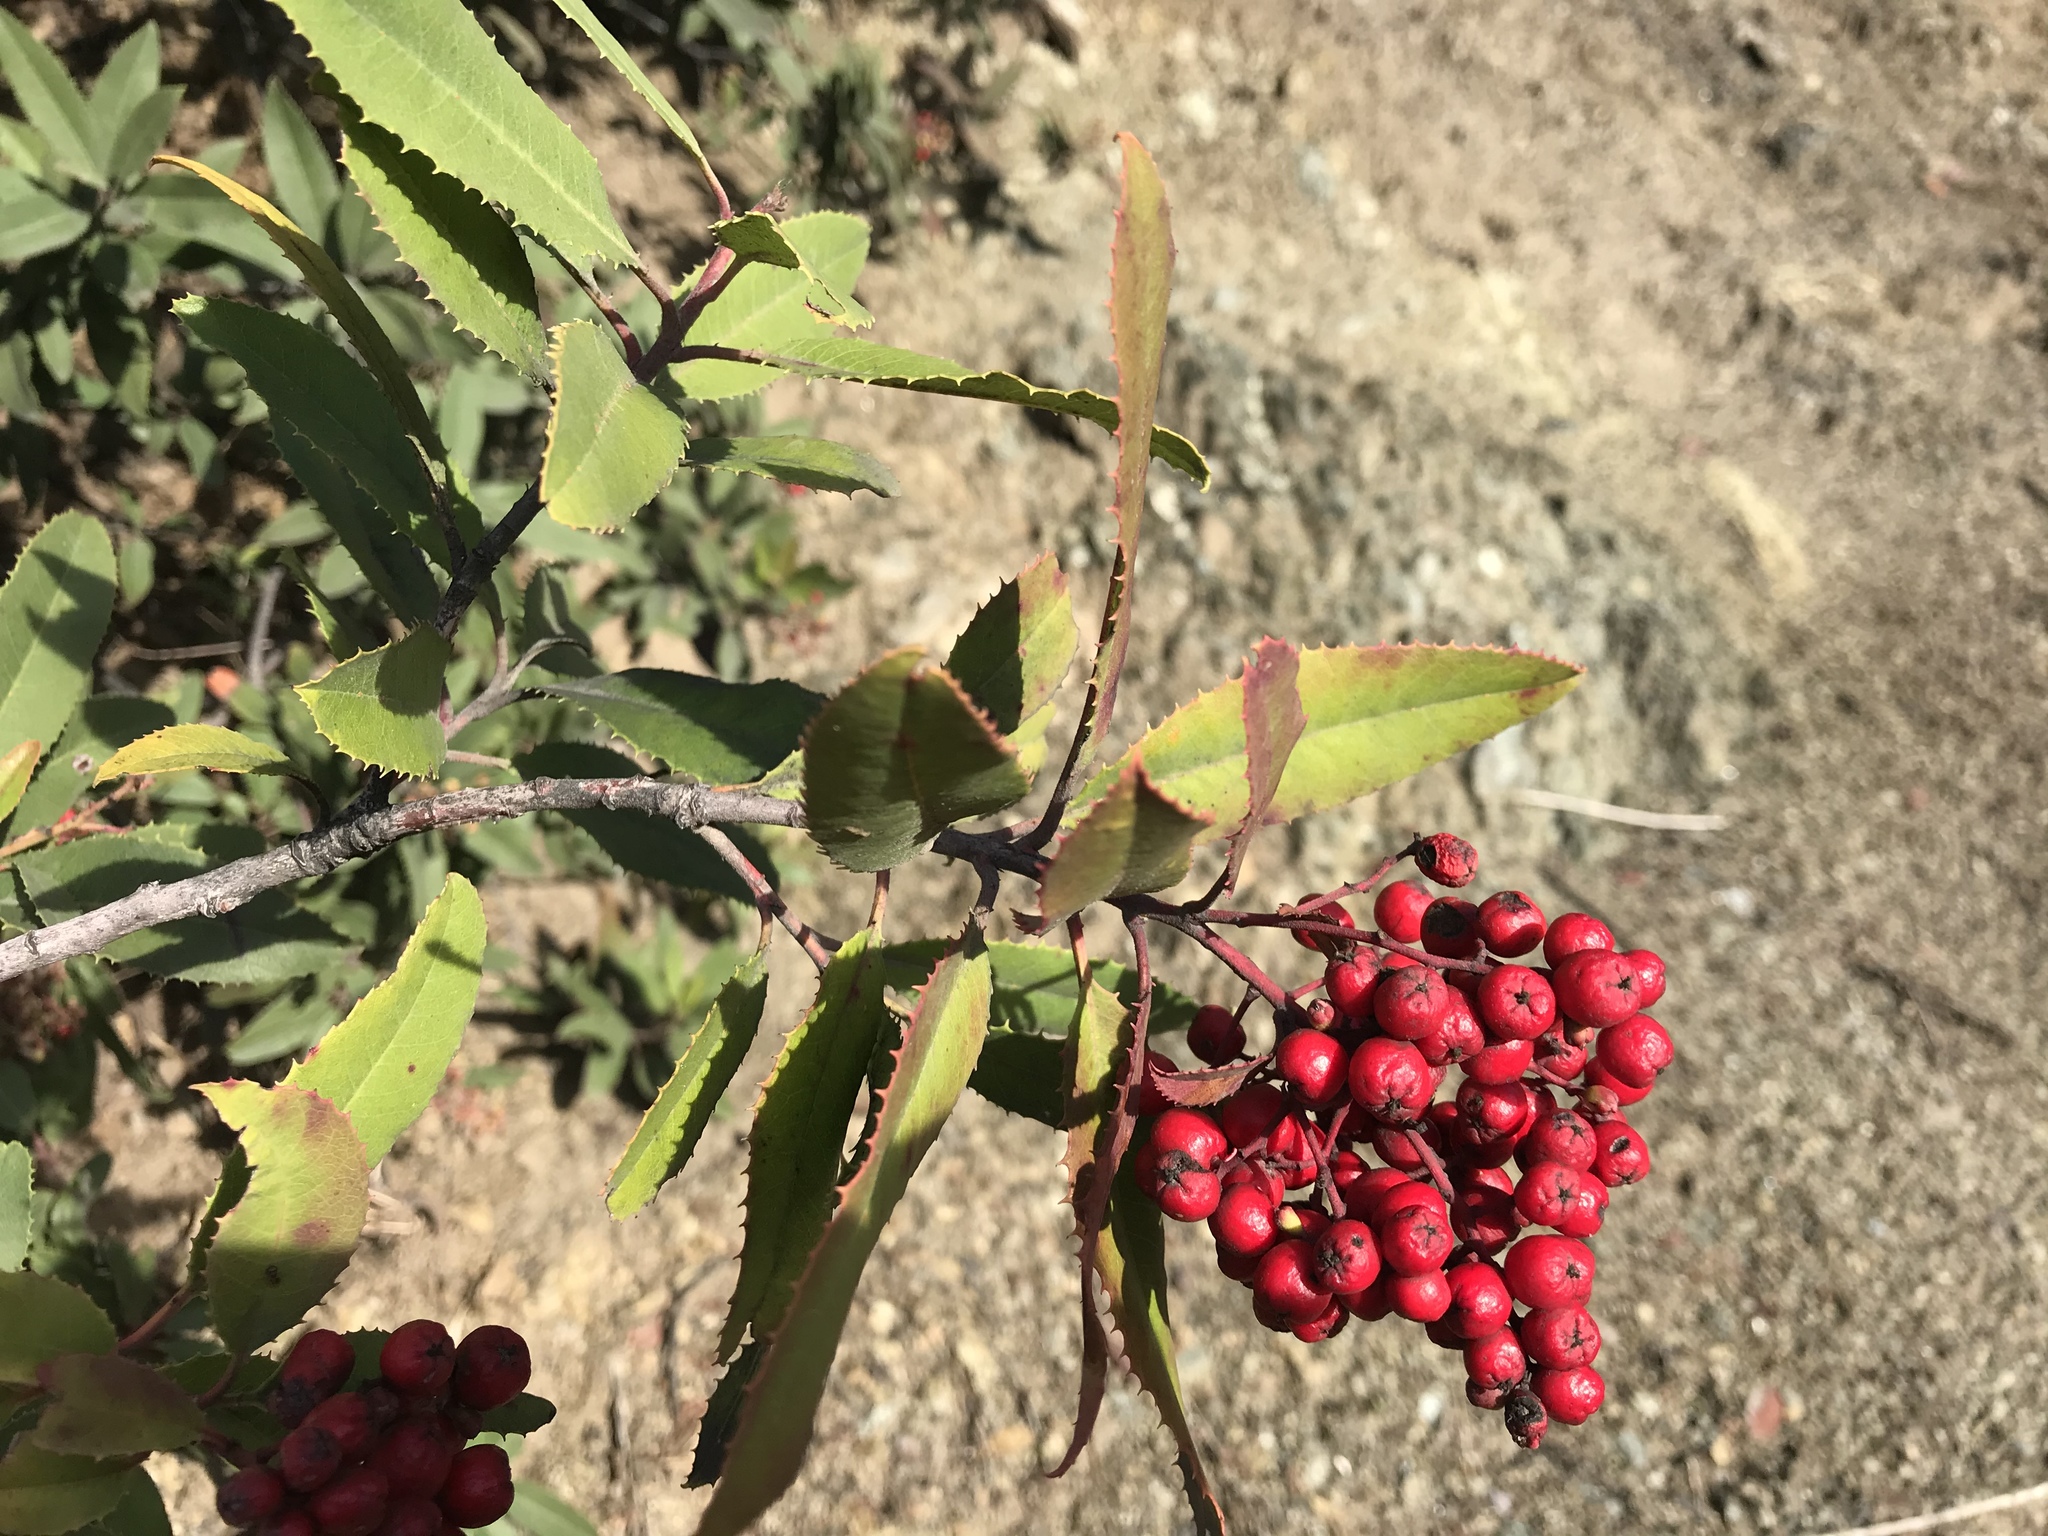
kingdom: Plantae
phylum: Tracheophyta
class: Magnoliopsida
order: Rosales
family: Rosaceae
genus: Heteromeles
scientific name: Heteromeles arbutifolia
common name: California-holly
